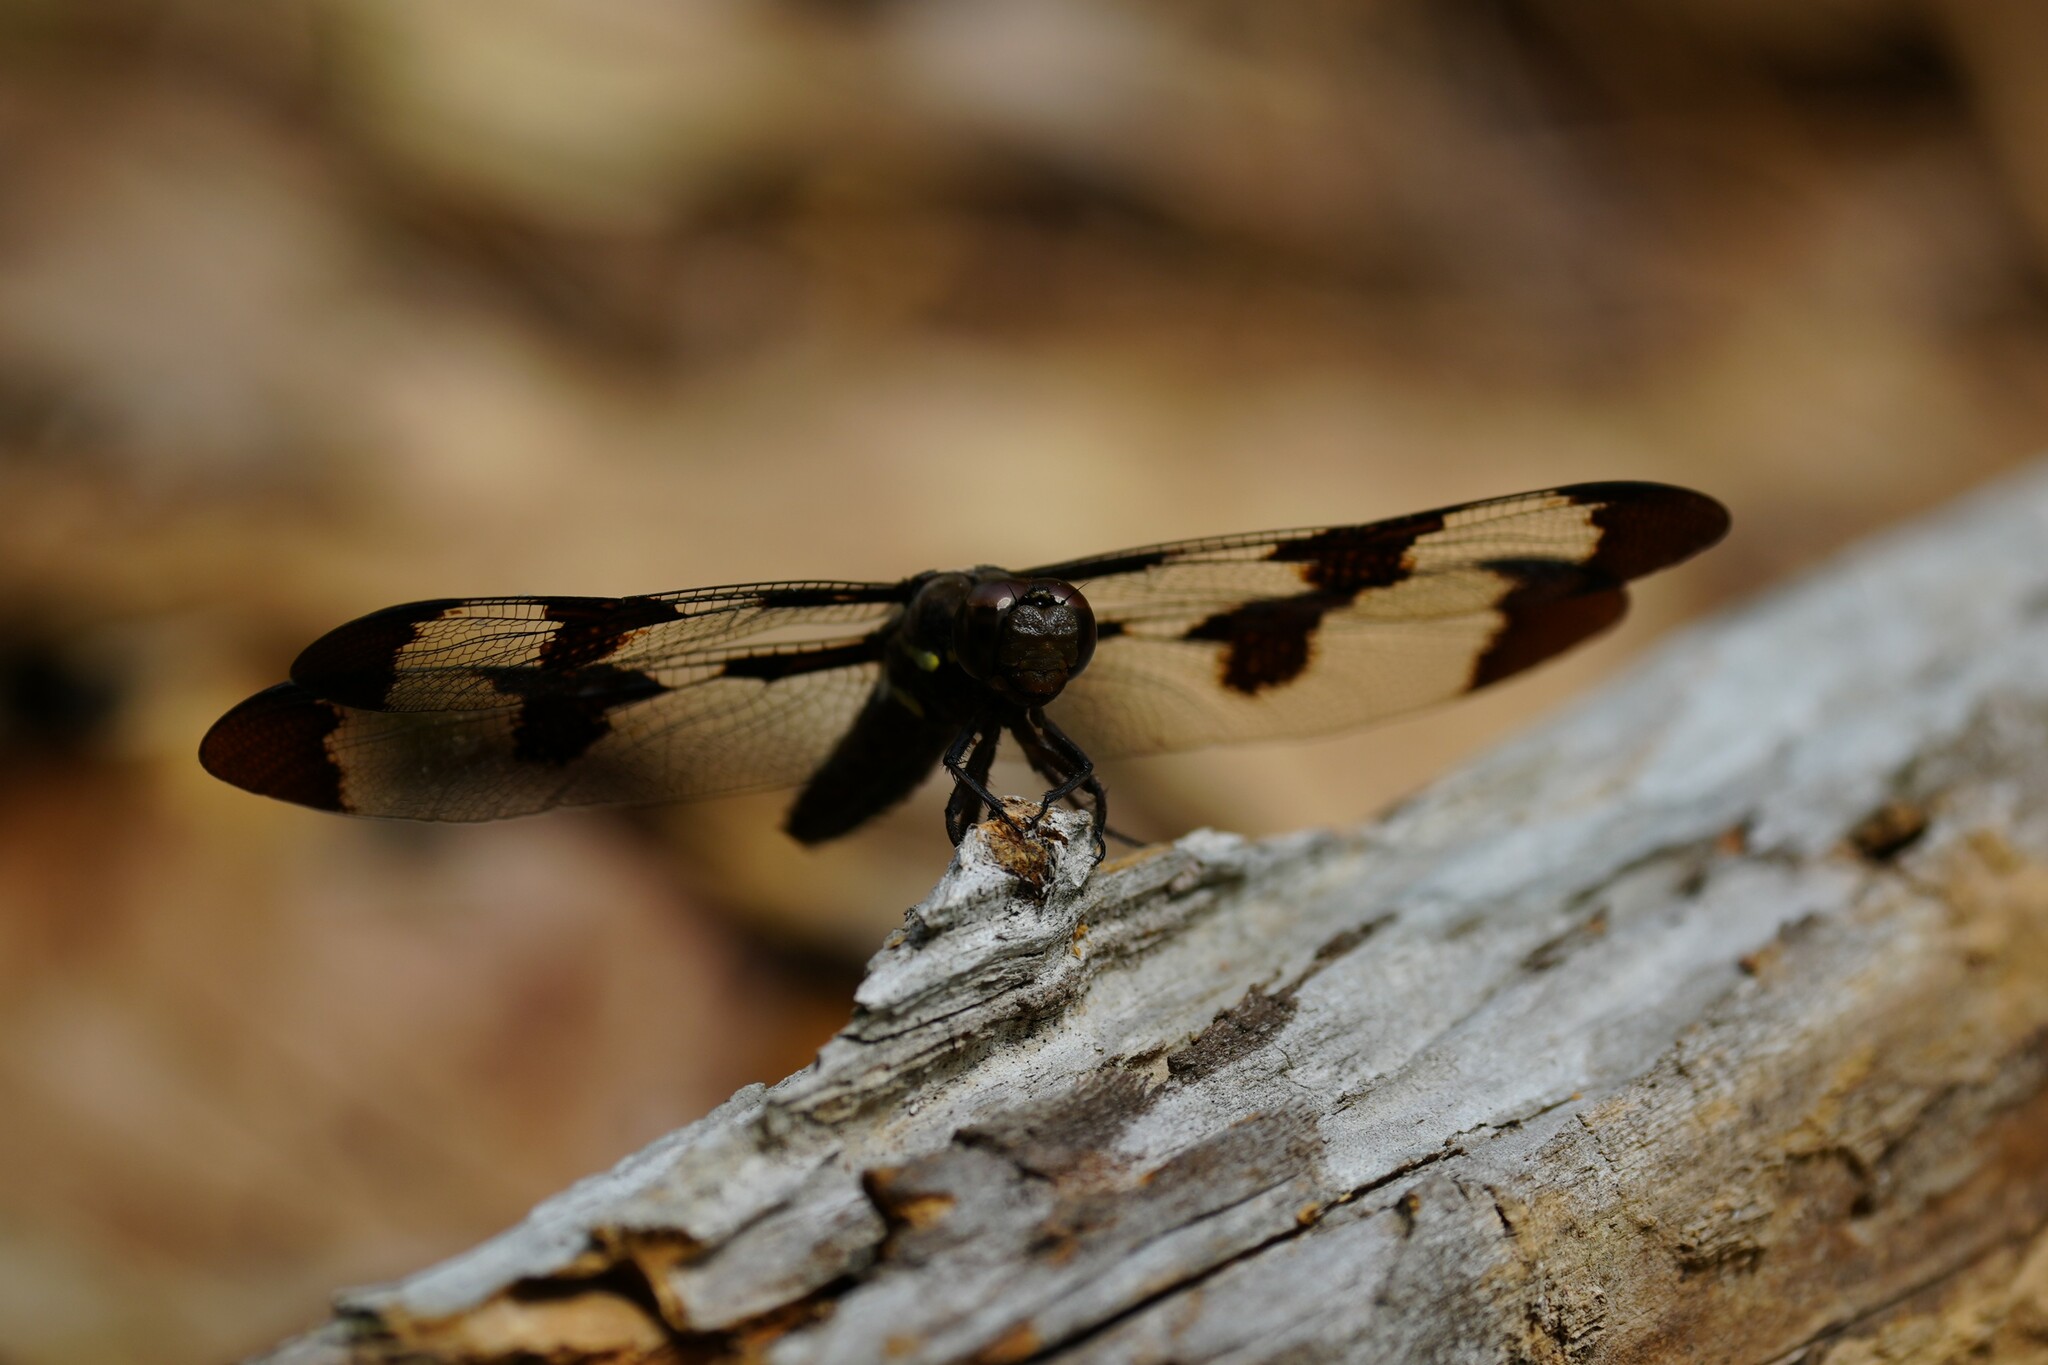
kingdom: Animalia
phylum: Arthropoda
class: Insecta
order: Odonata
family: Libellulidae
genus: Plathemis
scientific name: Plathemis lydia
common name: Common whitetail
